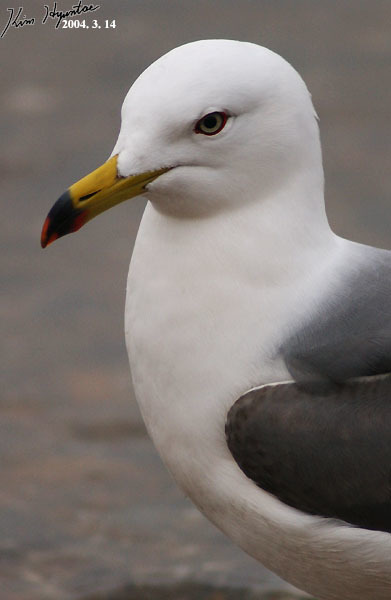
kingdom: Animalia
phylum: Chordata
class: Aves
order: Charadriiformes
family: Laridae
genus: Larus
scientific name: Larus crassirostris
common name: Black-tailed gull
